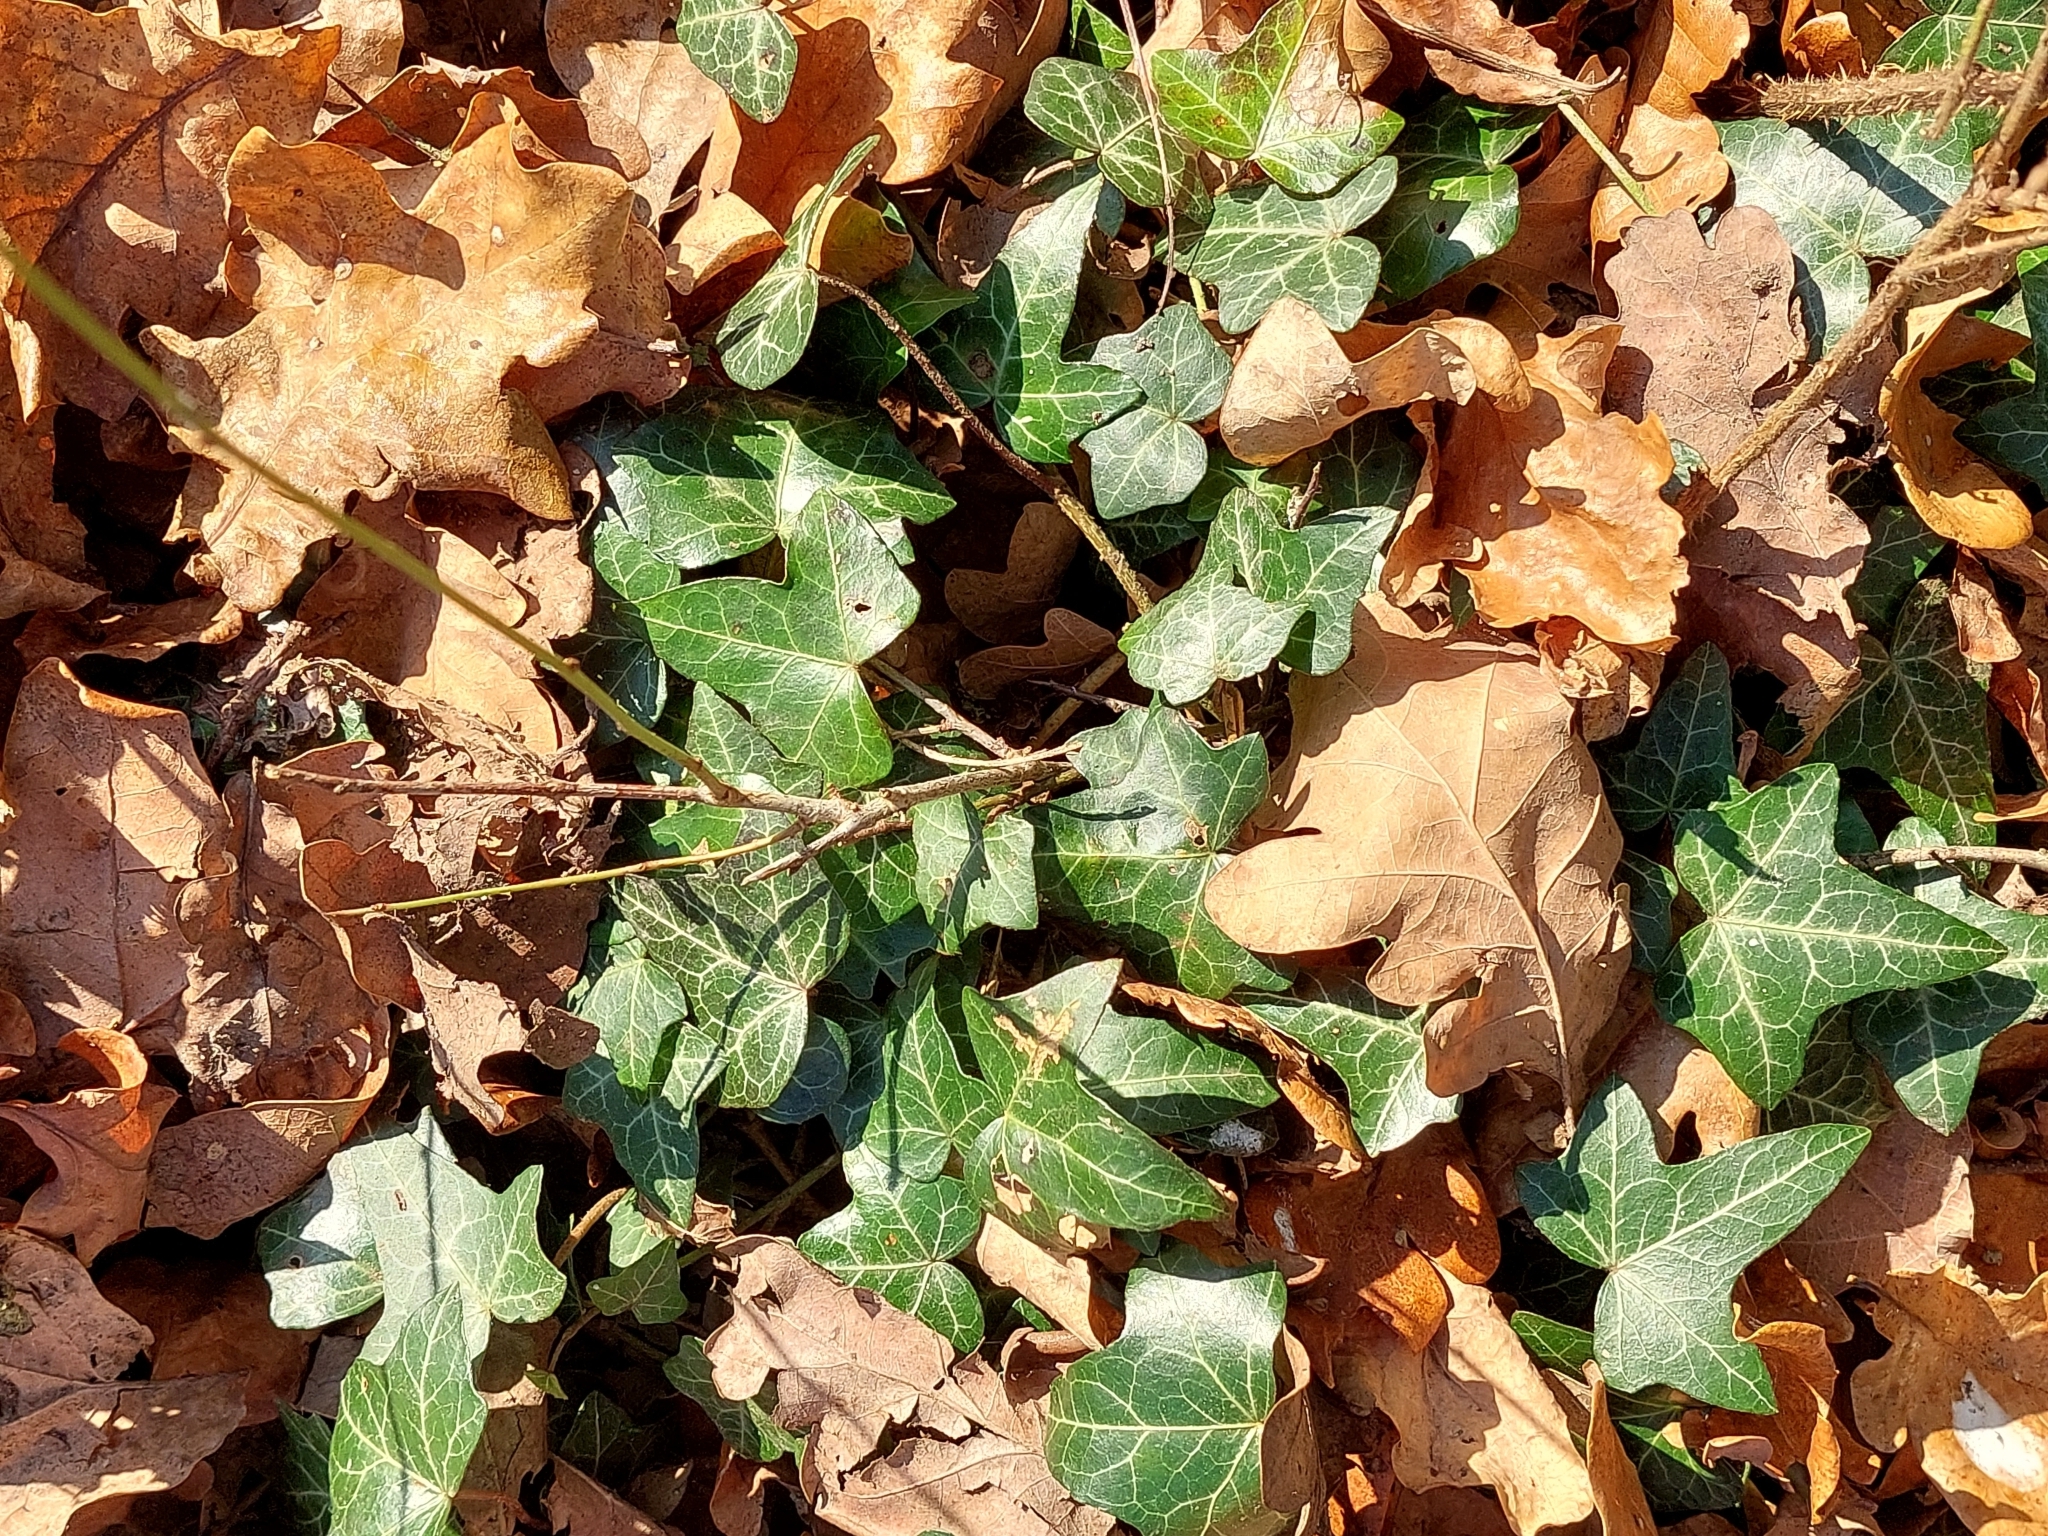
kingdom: Plantae
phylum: Tracheophyta
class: Magnoliopsida
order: Apiales
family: Araliaceae
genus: Hedera
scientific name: Hedera helix
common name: Ivy
